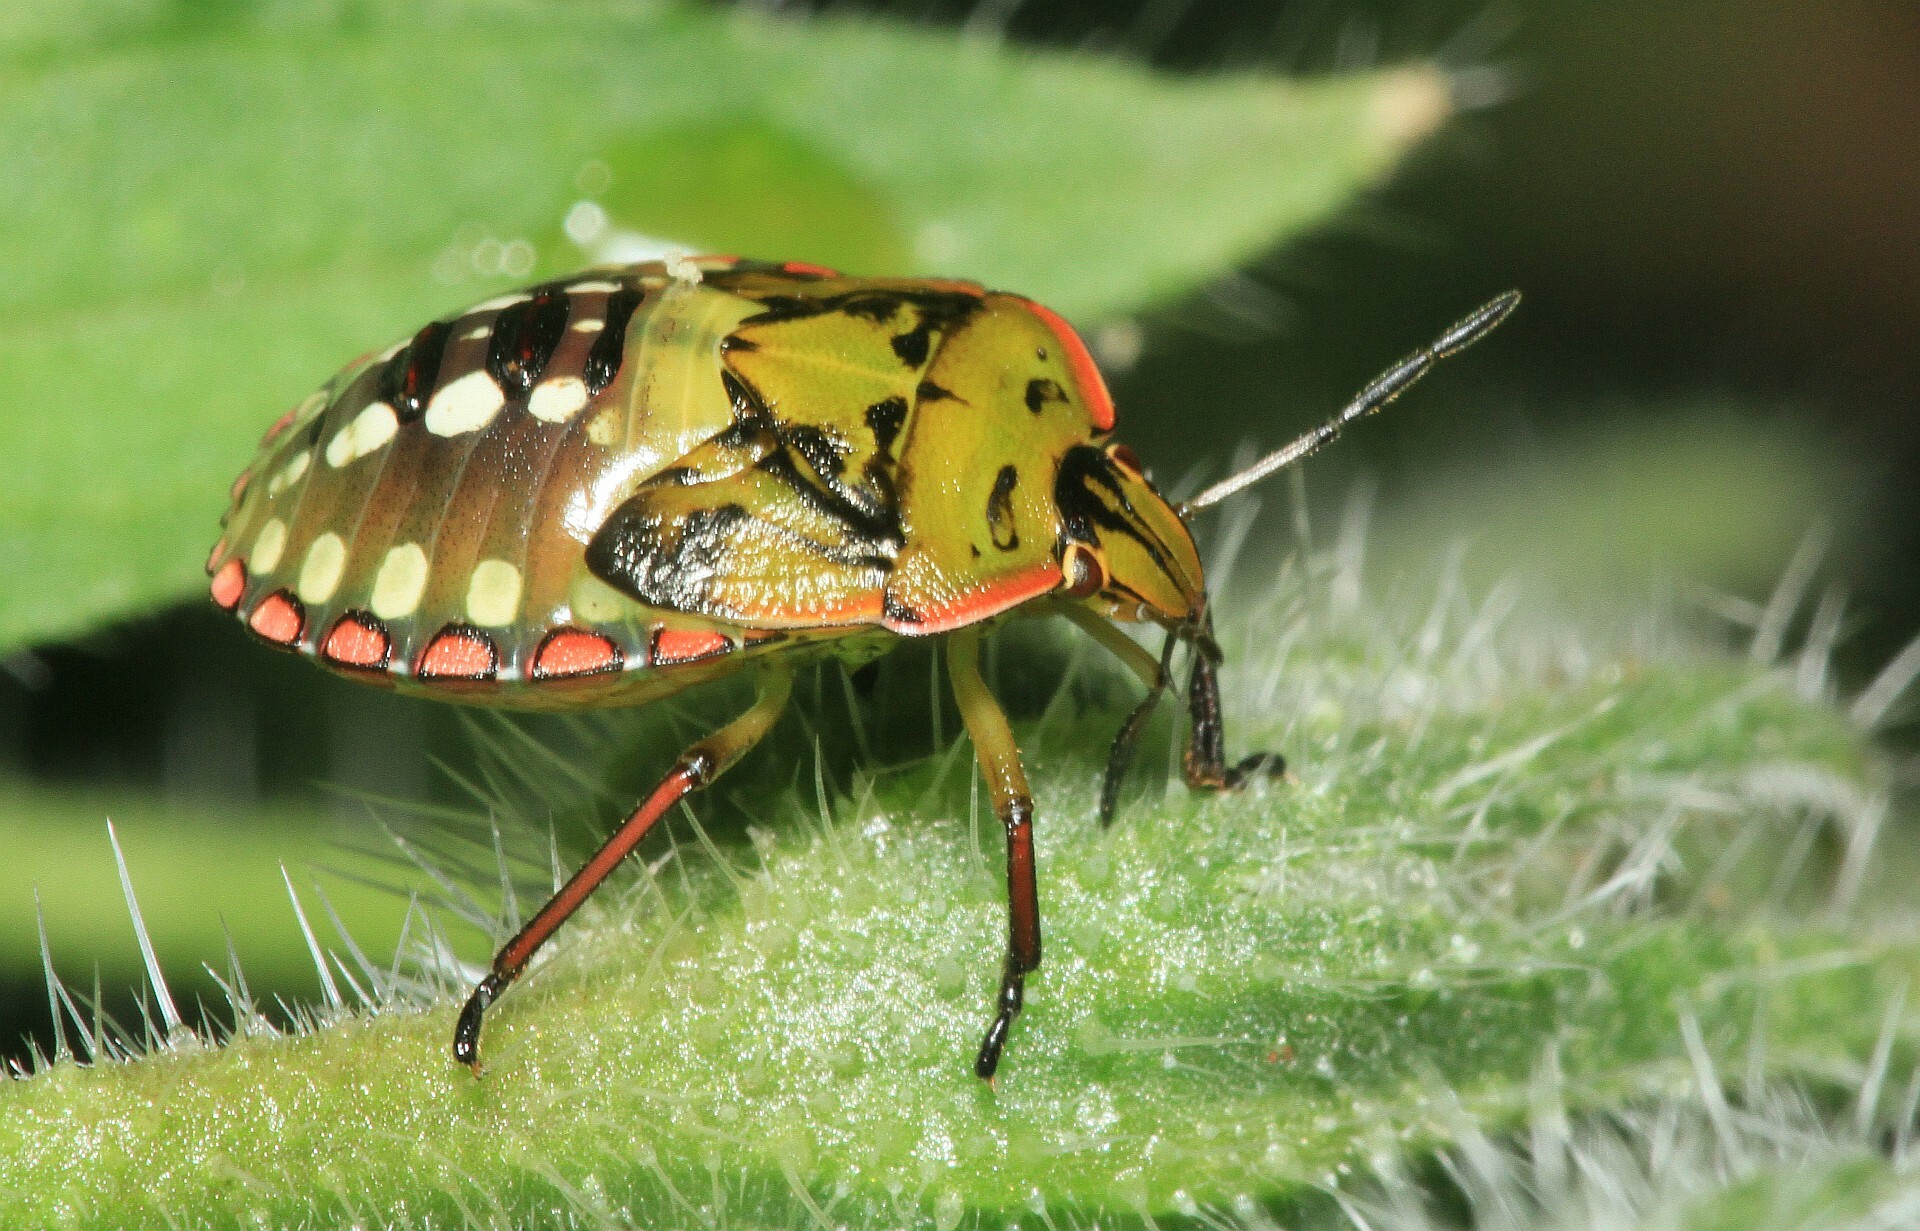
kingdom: Animalia
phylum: Arthropoda
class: Insecta
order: Hemiptera
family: Pentatomidae
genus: Nezara
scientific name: Nezara viridula
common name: Southern green stink bug
